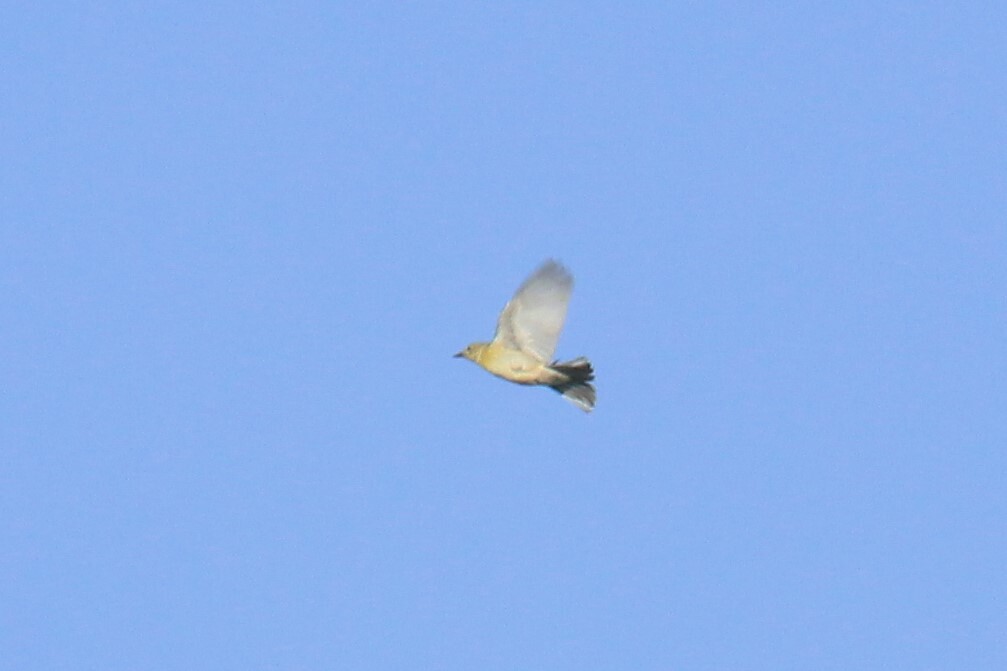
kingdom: Animalia
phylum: Chordata
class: Aves
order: Passeriformes
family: Parulidae
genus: Setophaga
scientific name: Setophaga pinus
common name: Pine warbler
